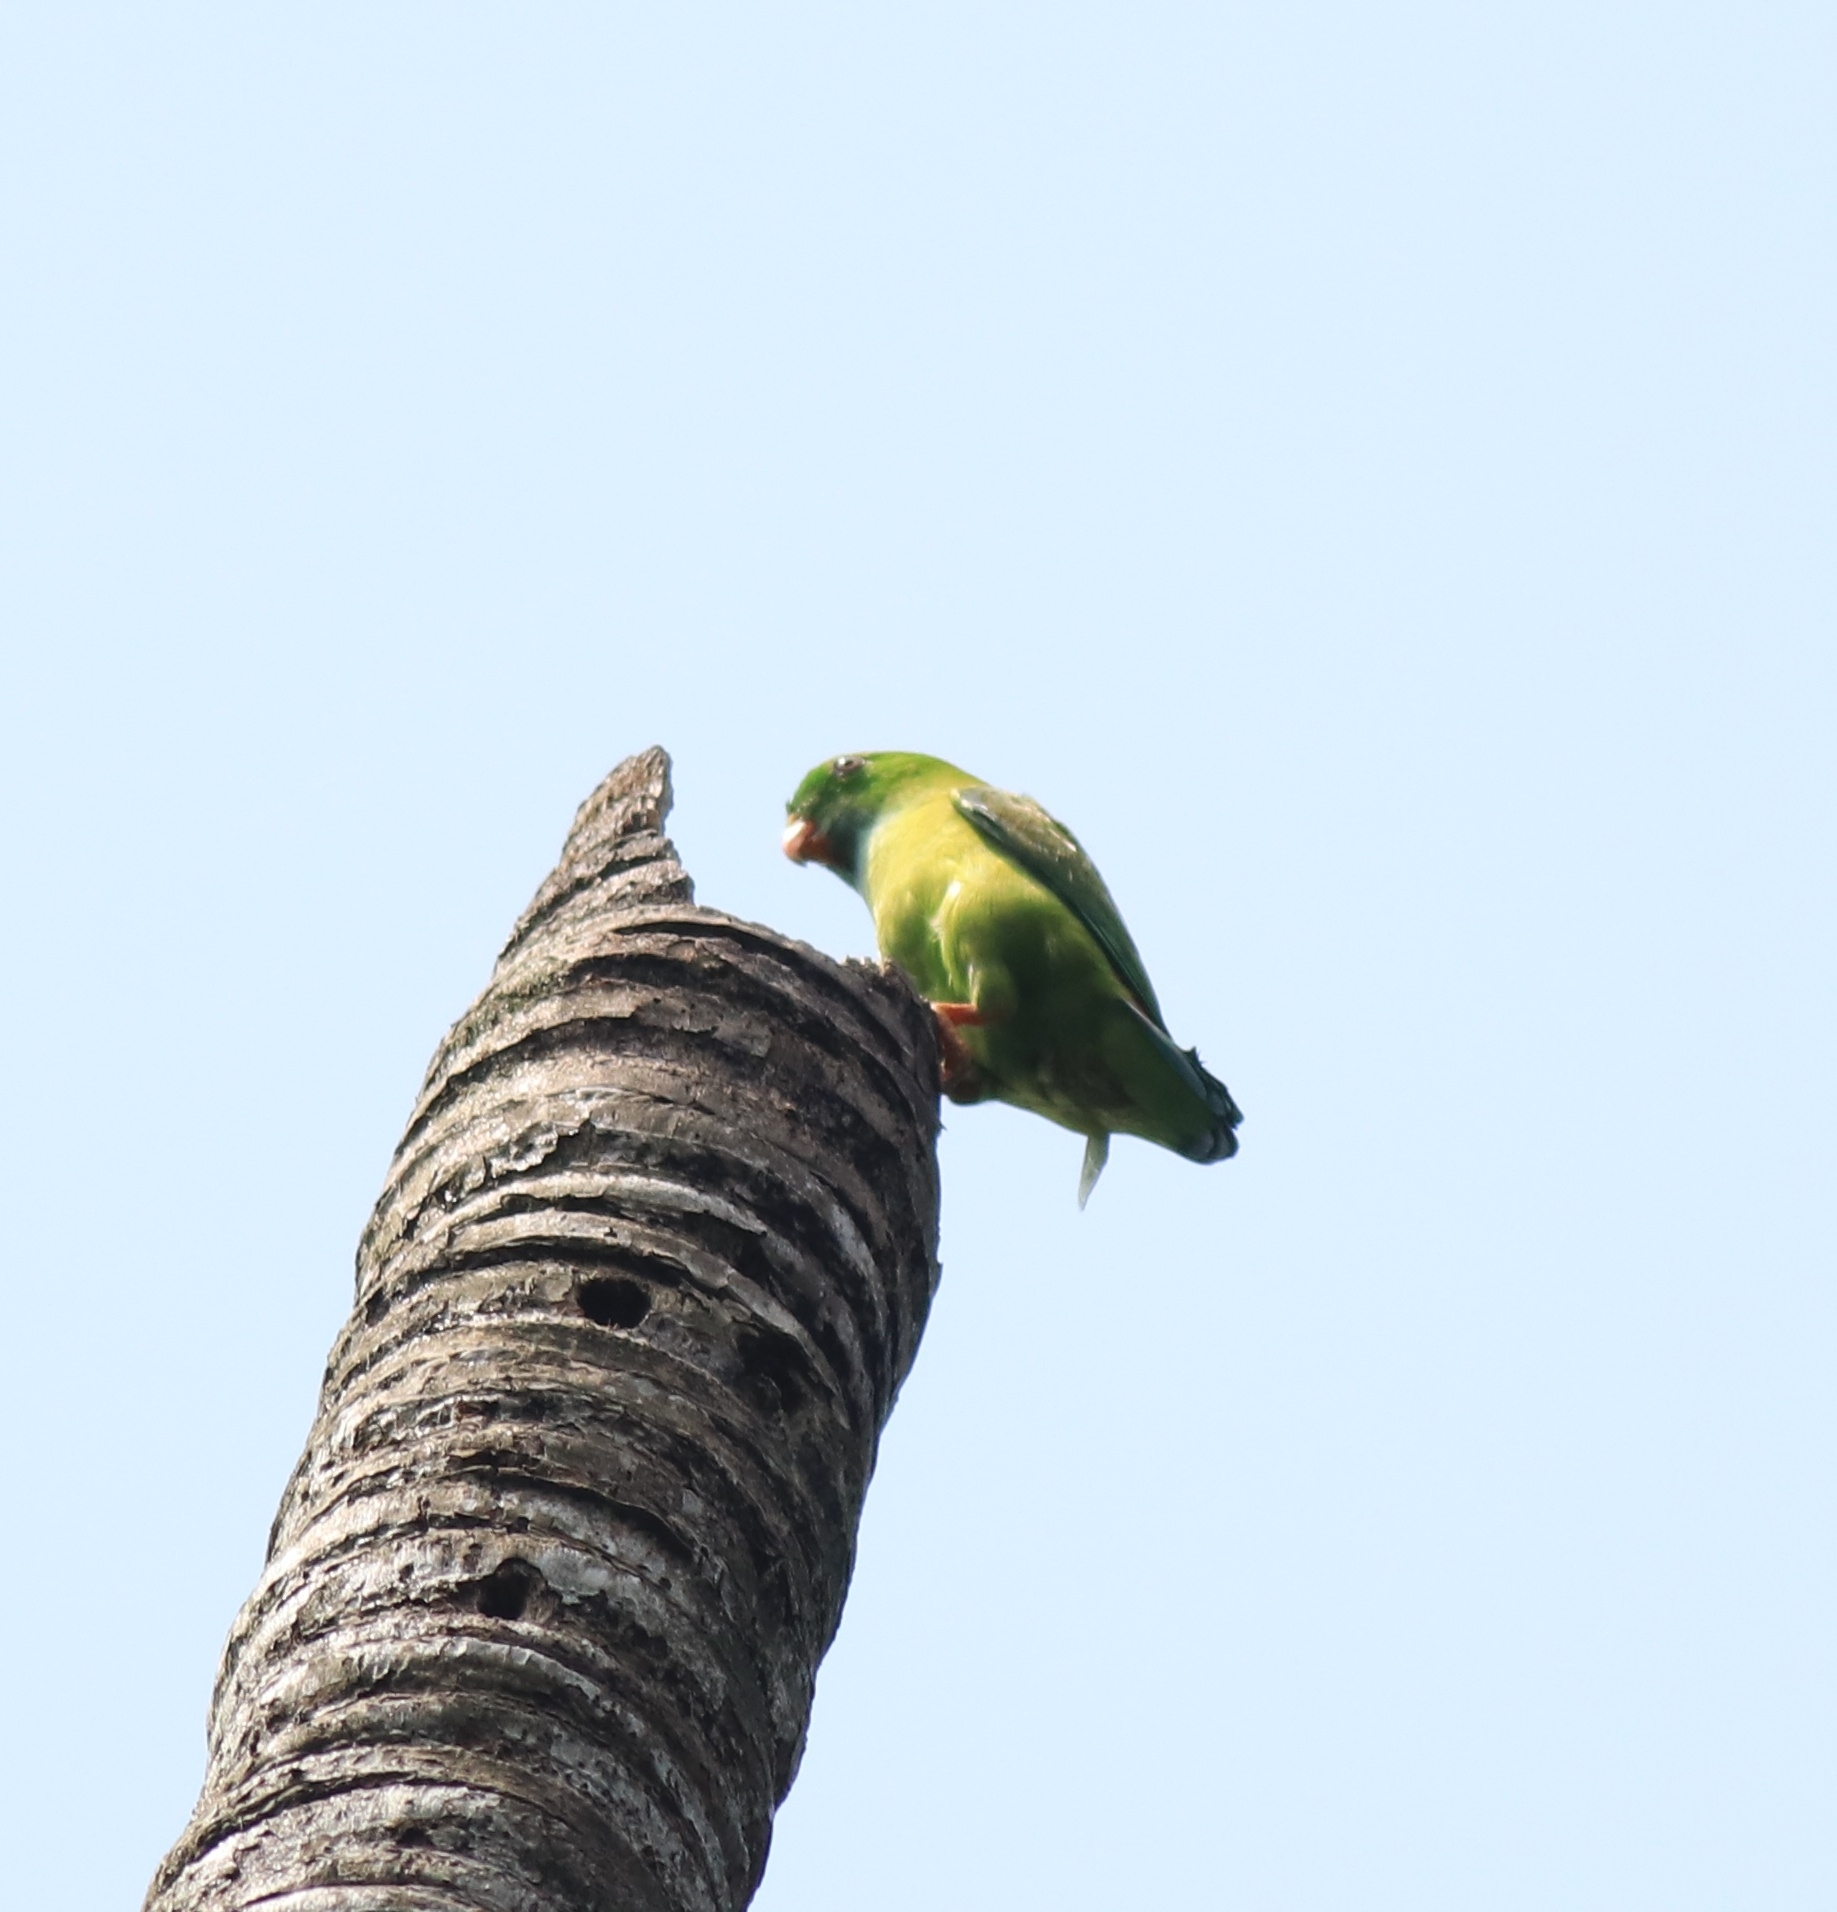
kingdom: Animalia
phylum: Chordata
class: Aves
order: Psittaciformes
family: Psittacidae
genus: Loriculus
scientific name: Loriculus vernalis
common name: Vernal hanging parrot
